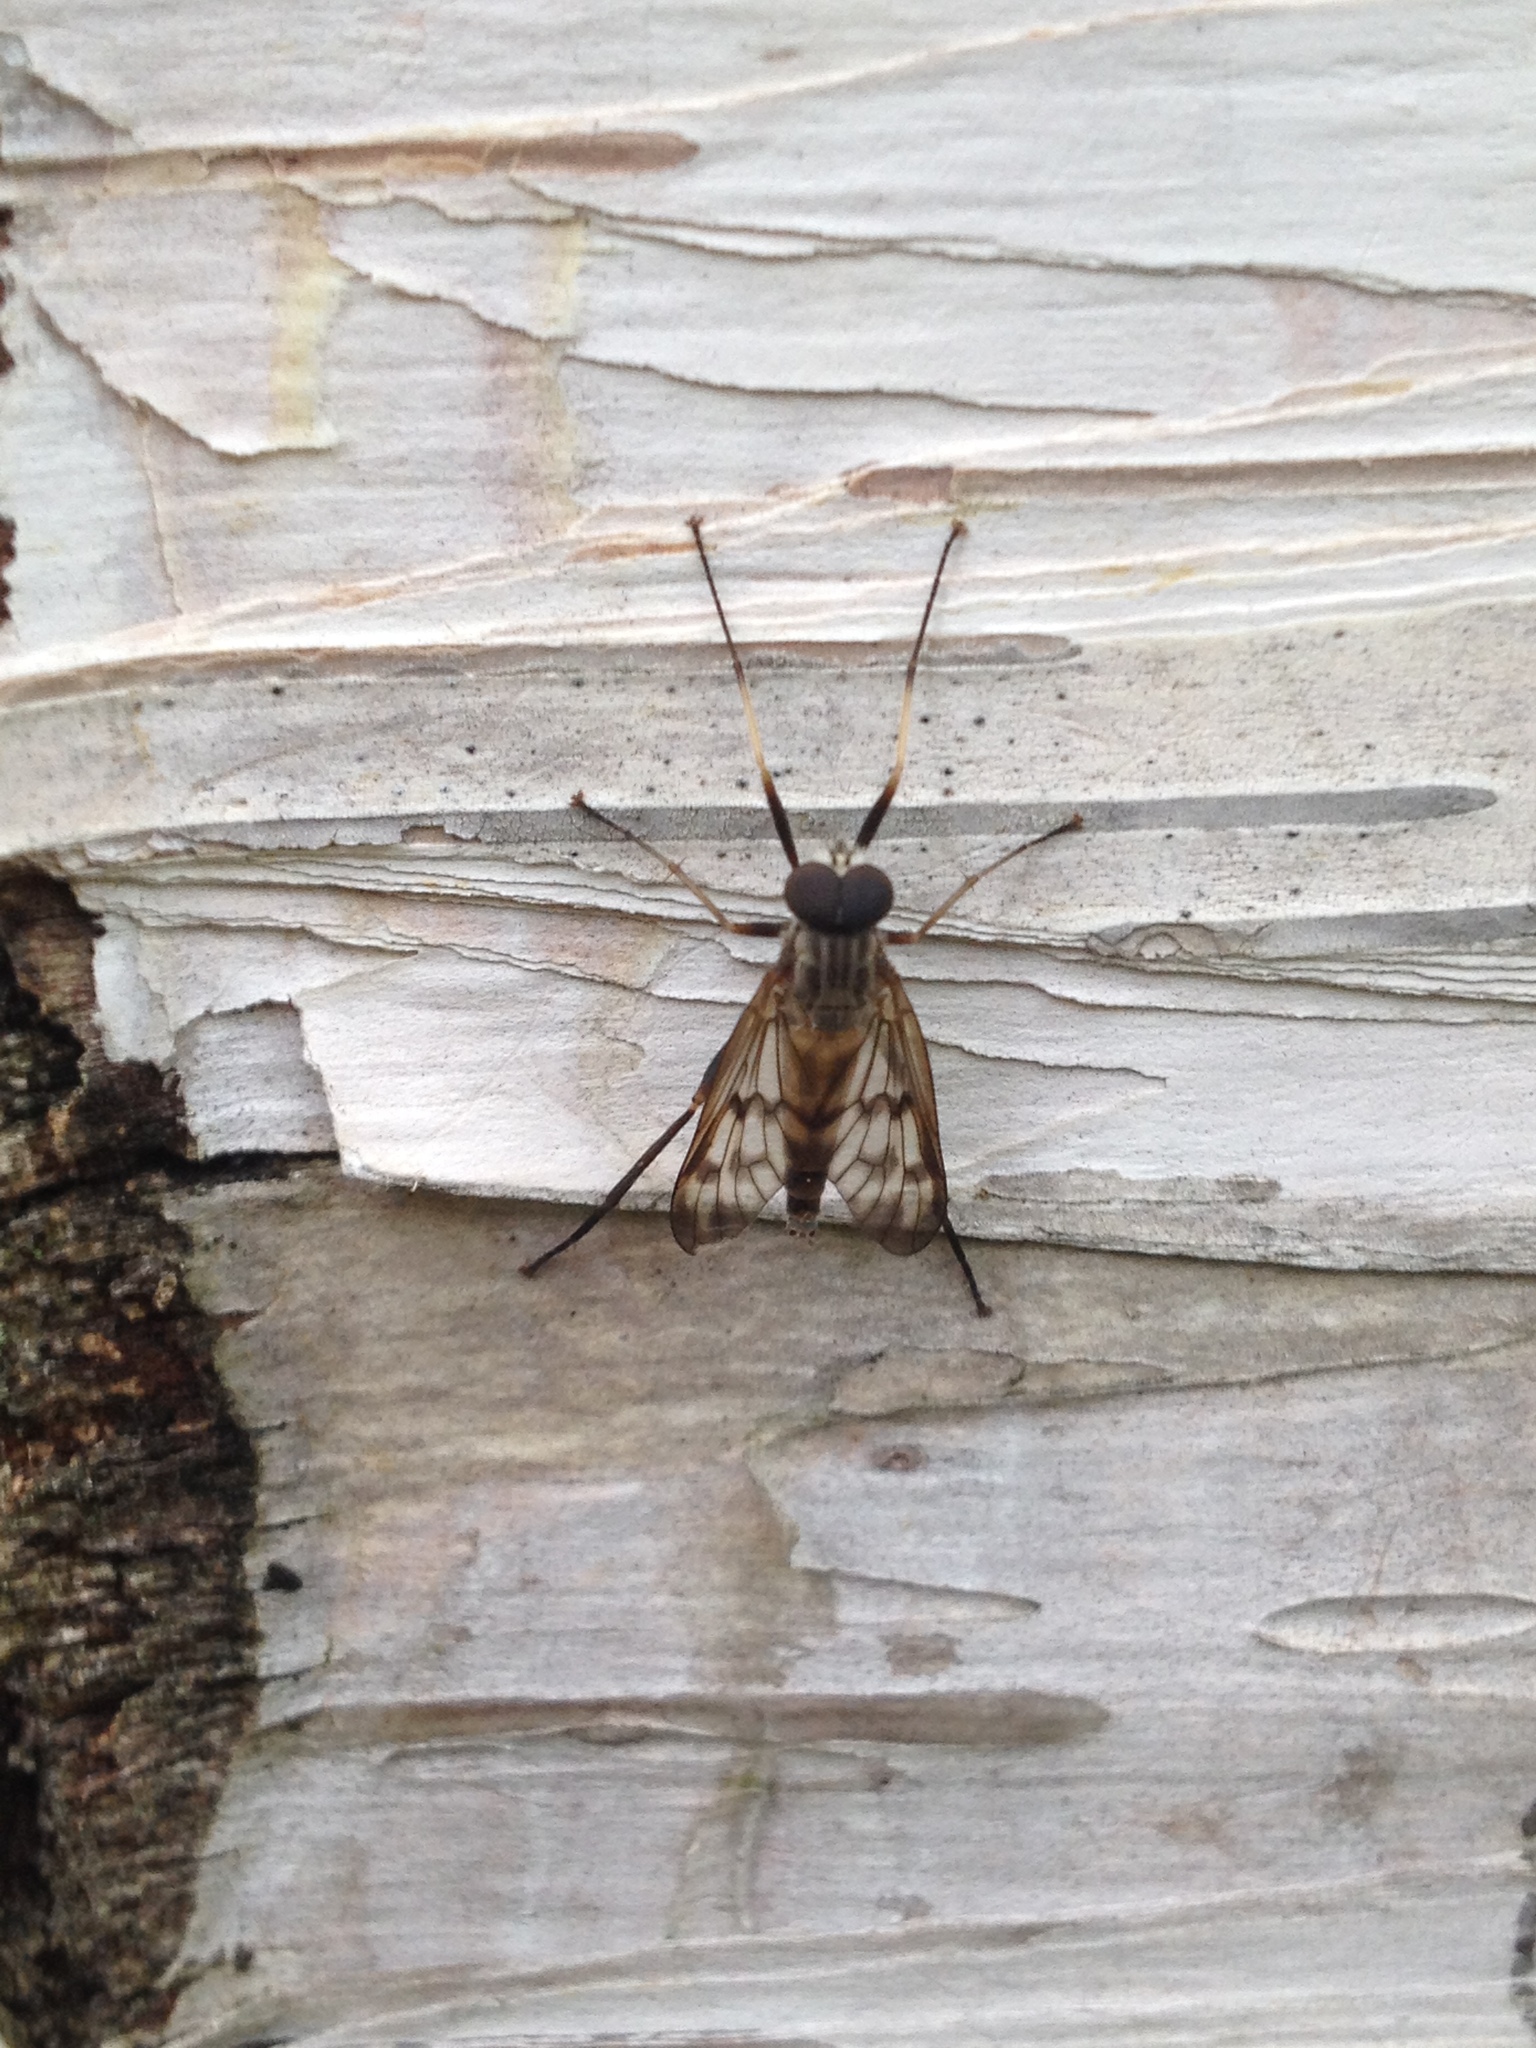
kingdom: Animalia
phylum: Arthropoda
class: Insecta
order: Diptera
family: Rhagionidae
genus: Rhagio
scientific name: Rhagio punctipennis
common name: Lesser variegated snipe fly
